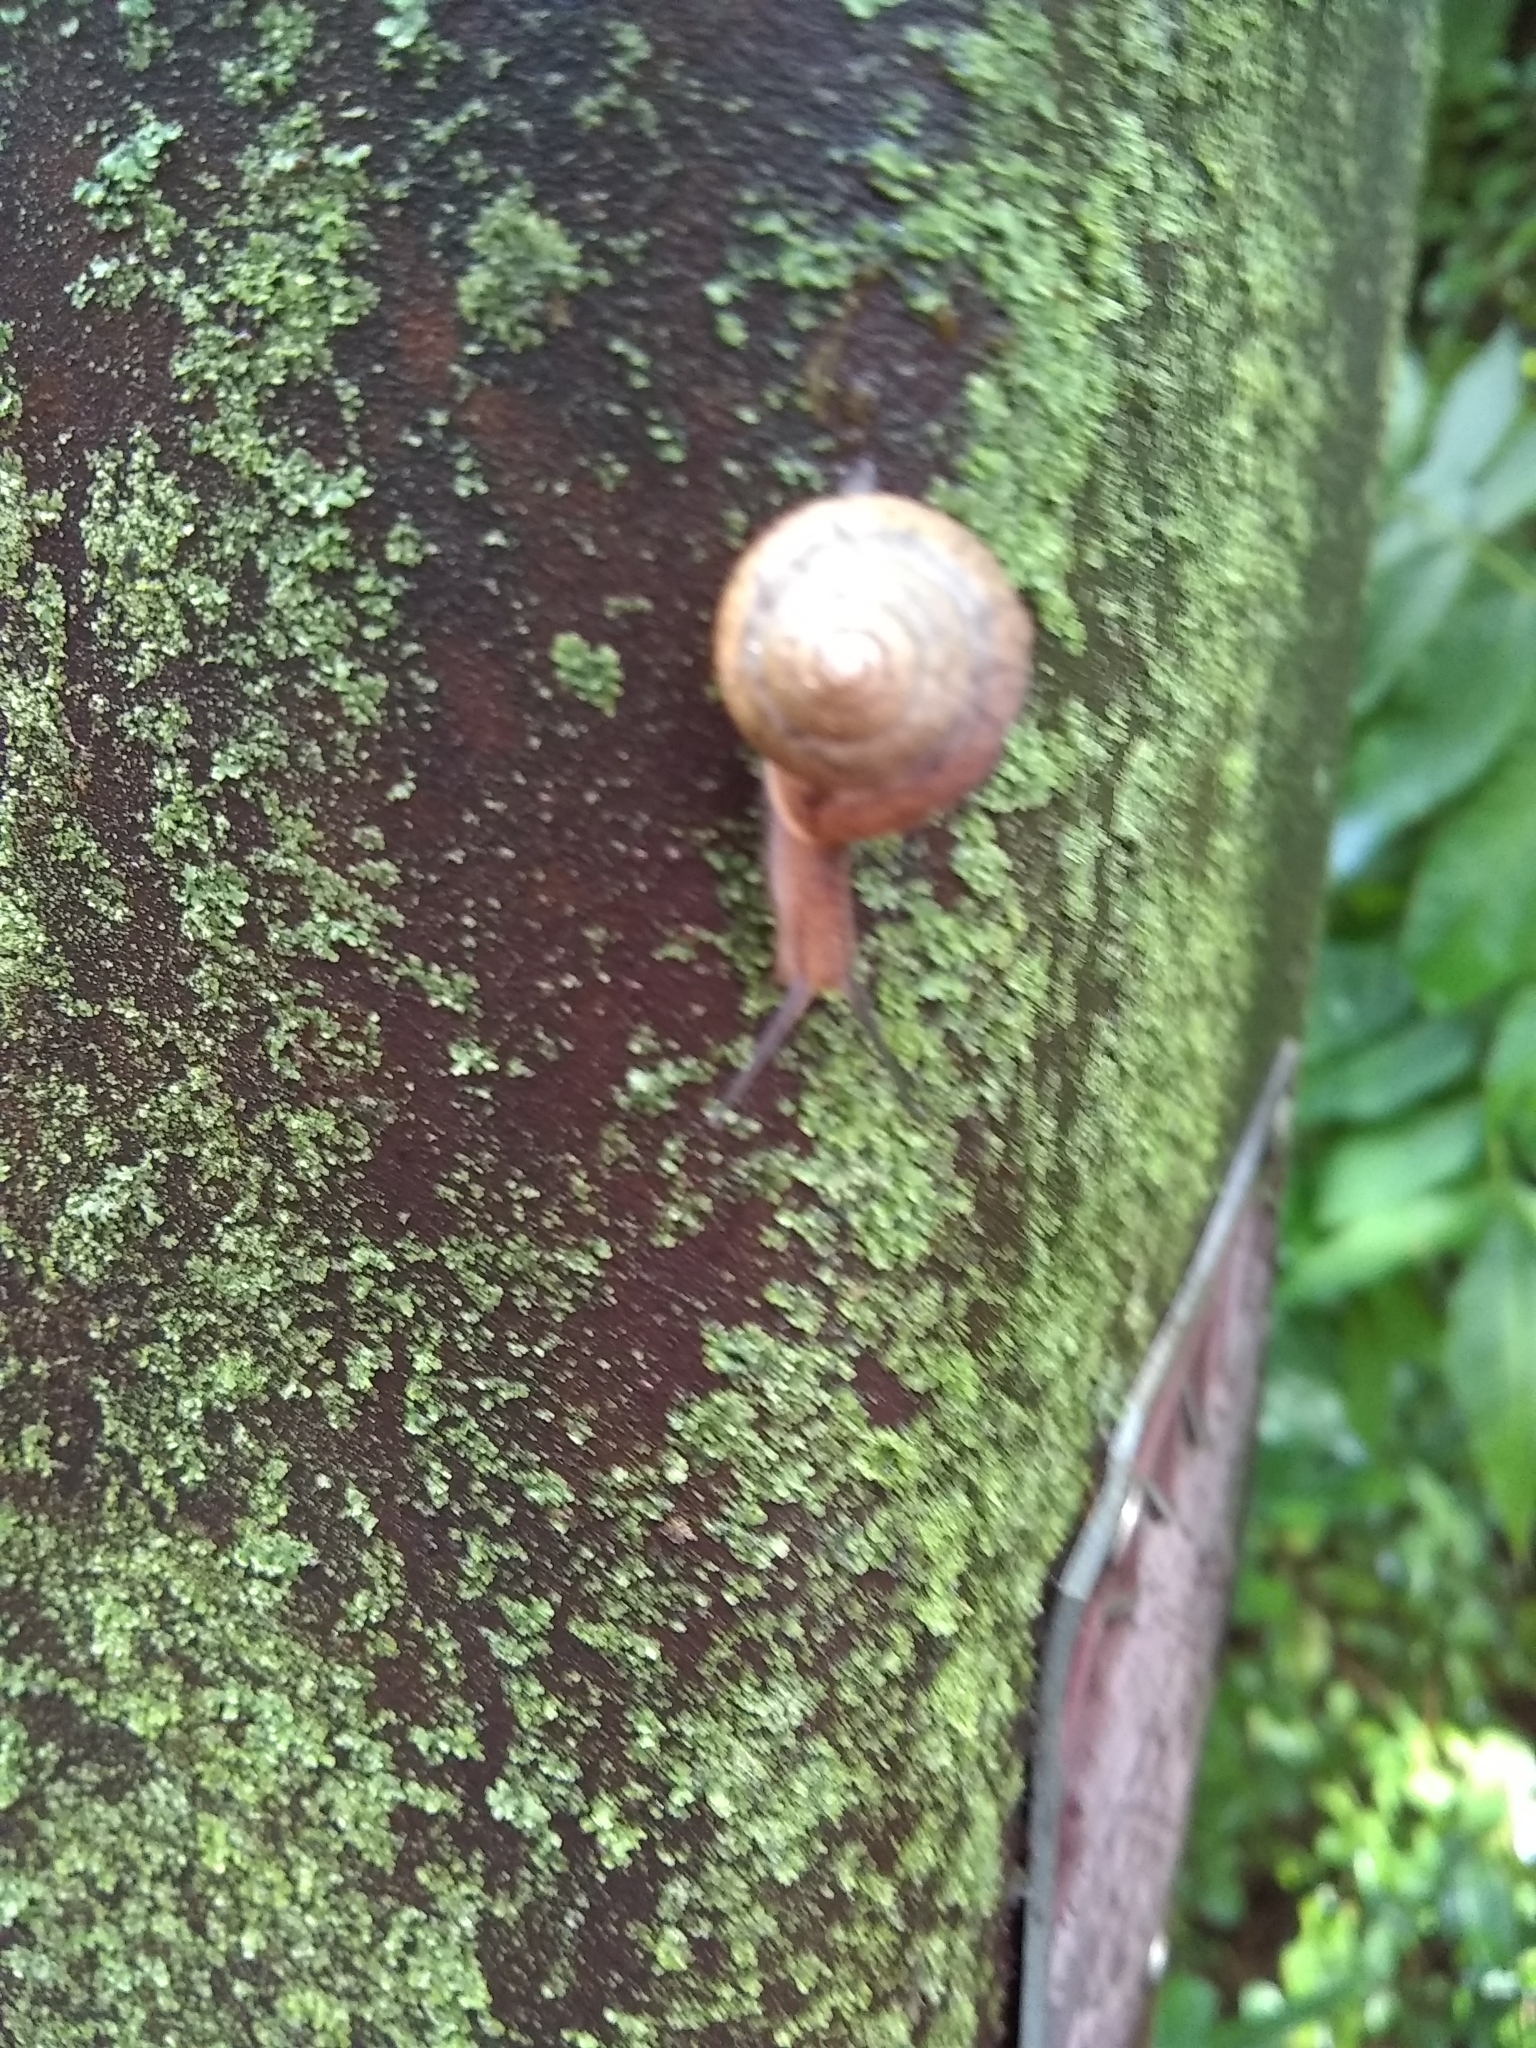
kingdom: Animalia
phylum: Mollusca
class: Gastropoda
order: Stylommatophora
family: Camaenidae
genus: Bradybaena
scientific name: Bradybaena similaris
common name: Asian trampsnail
